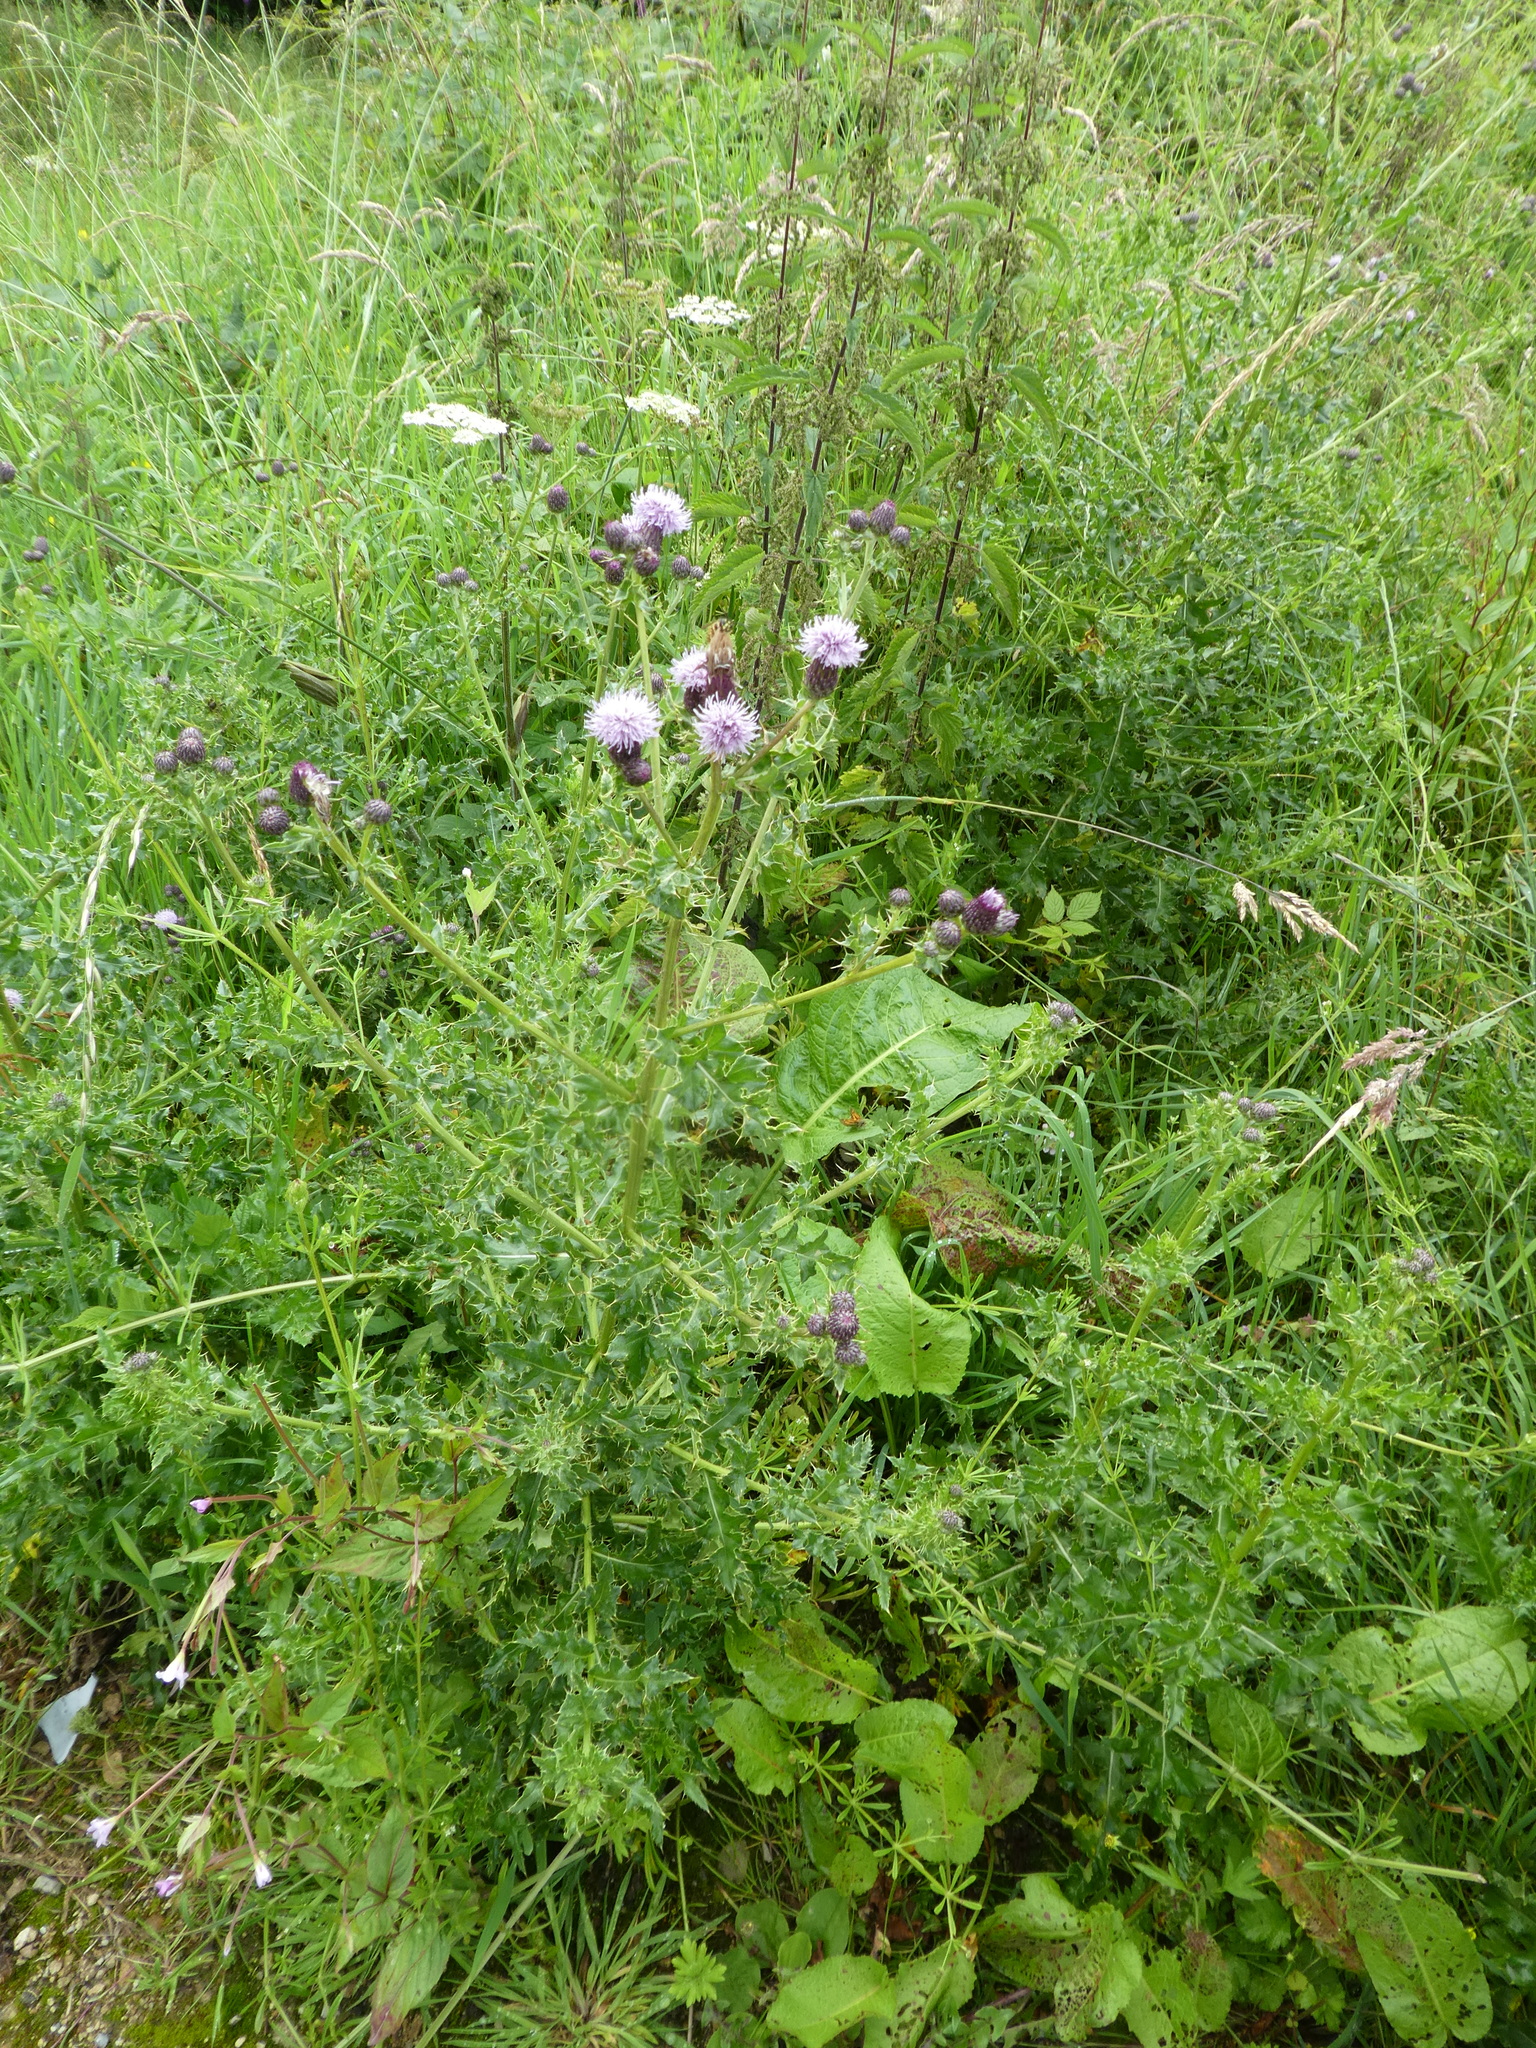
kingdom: Plantae
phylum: Tracheophyta
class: Magnoliopsida
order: Asterales
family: Asteraceae
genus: Cirsium
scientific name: Cirsium arvense
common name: Creeping thistle
